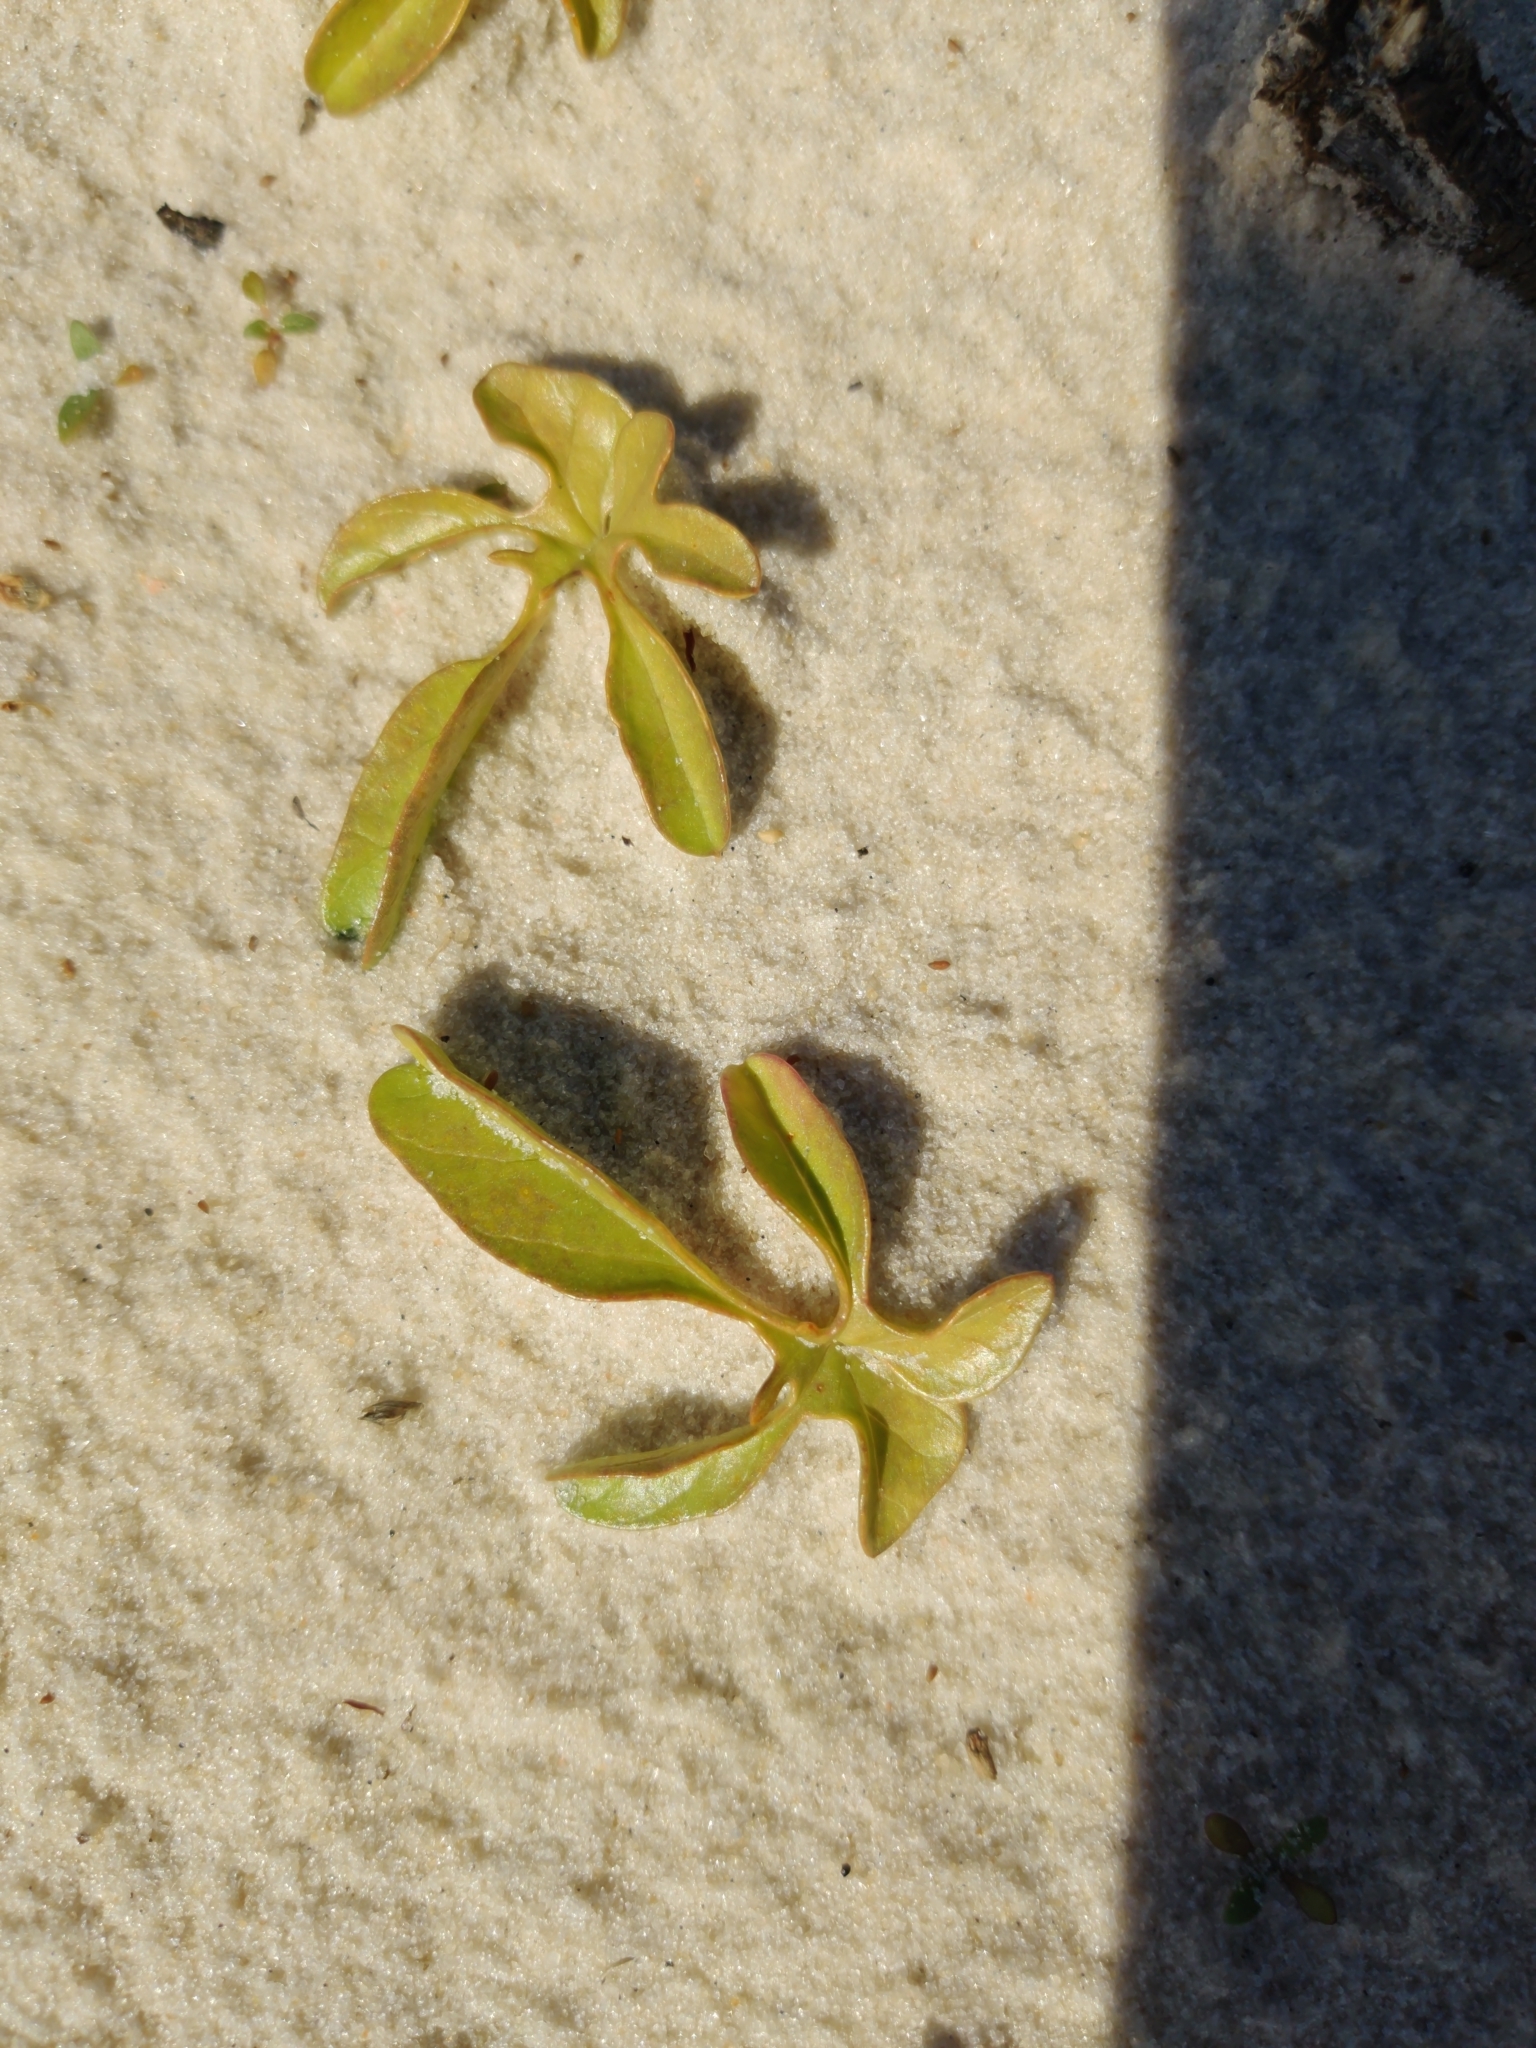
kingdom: Plantae
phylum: Tracheophyta
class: Magnoliopsida
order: Solanales
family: Convolvulaceae
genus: Ipomoea
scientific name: Ipomoea imperati
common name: Fiddle-leaf morning-glory
